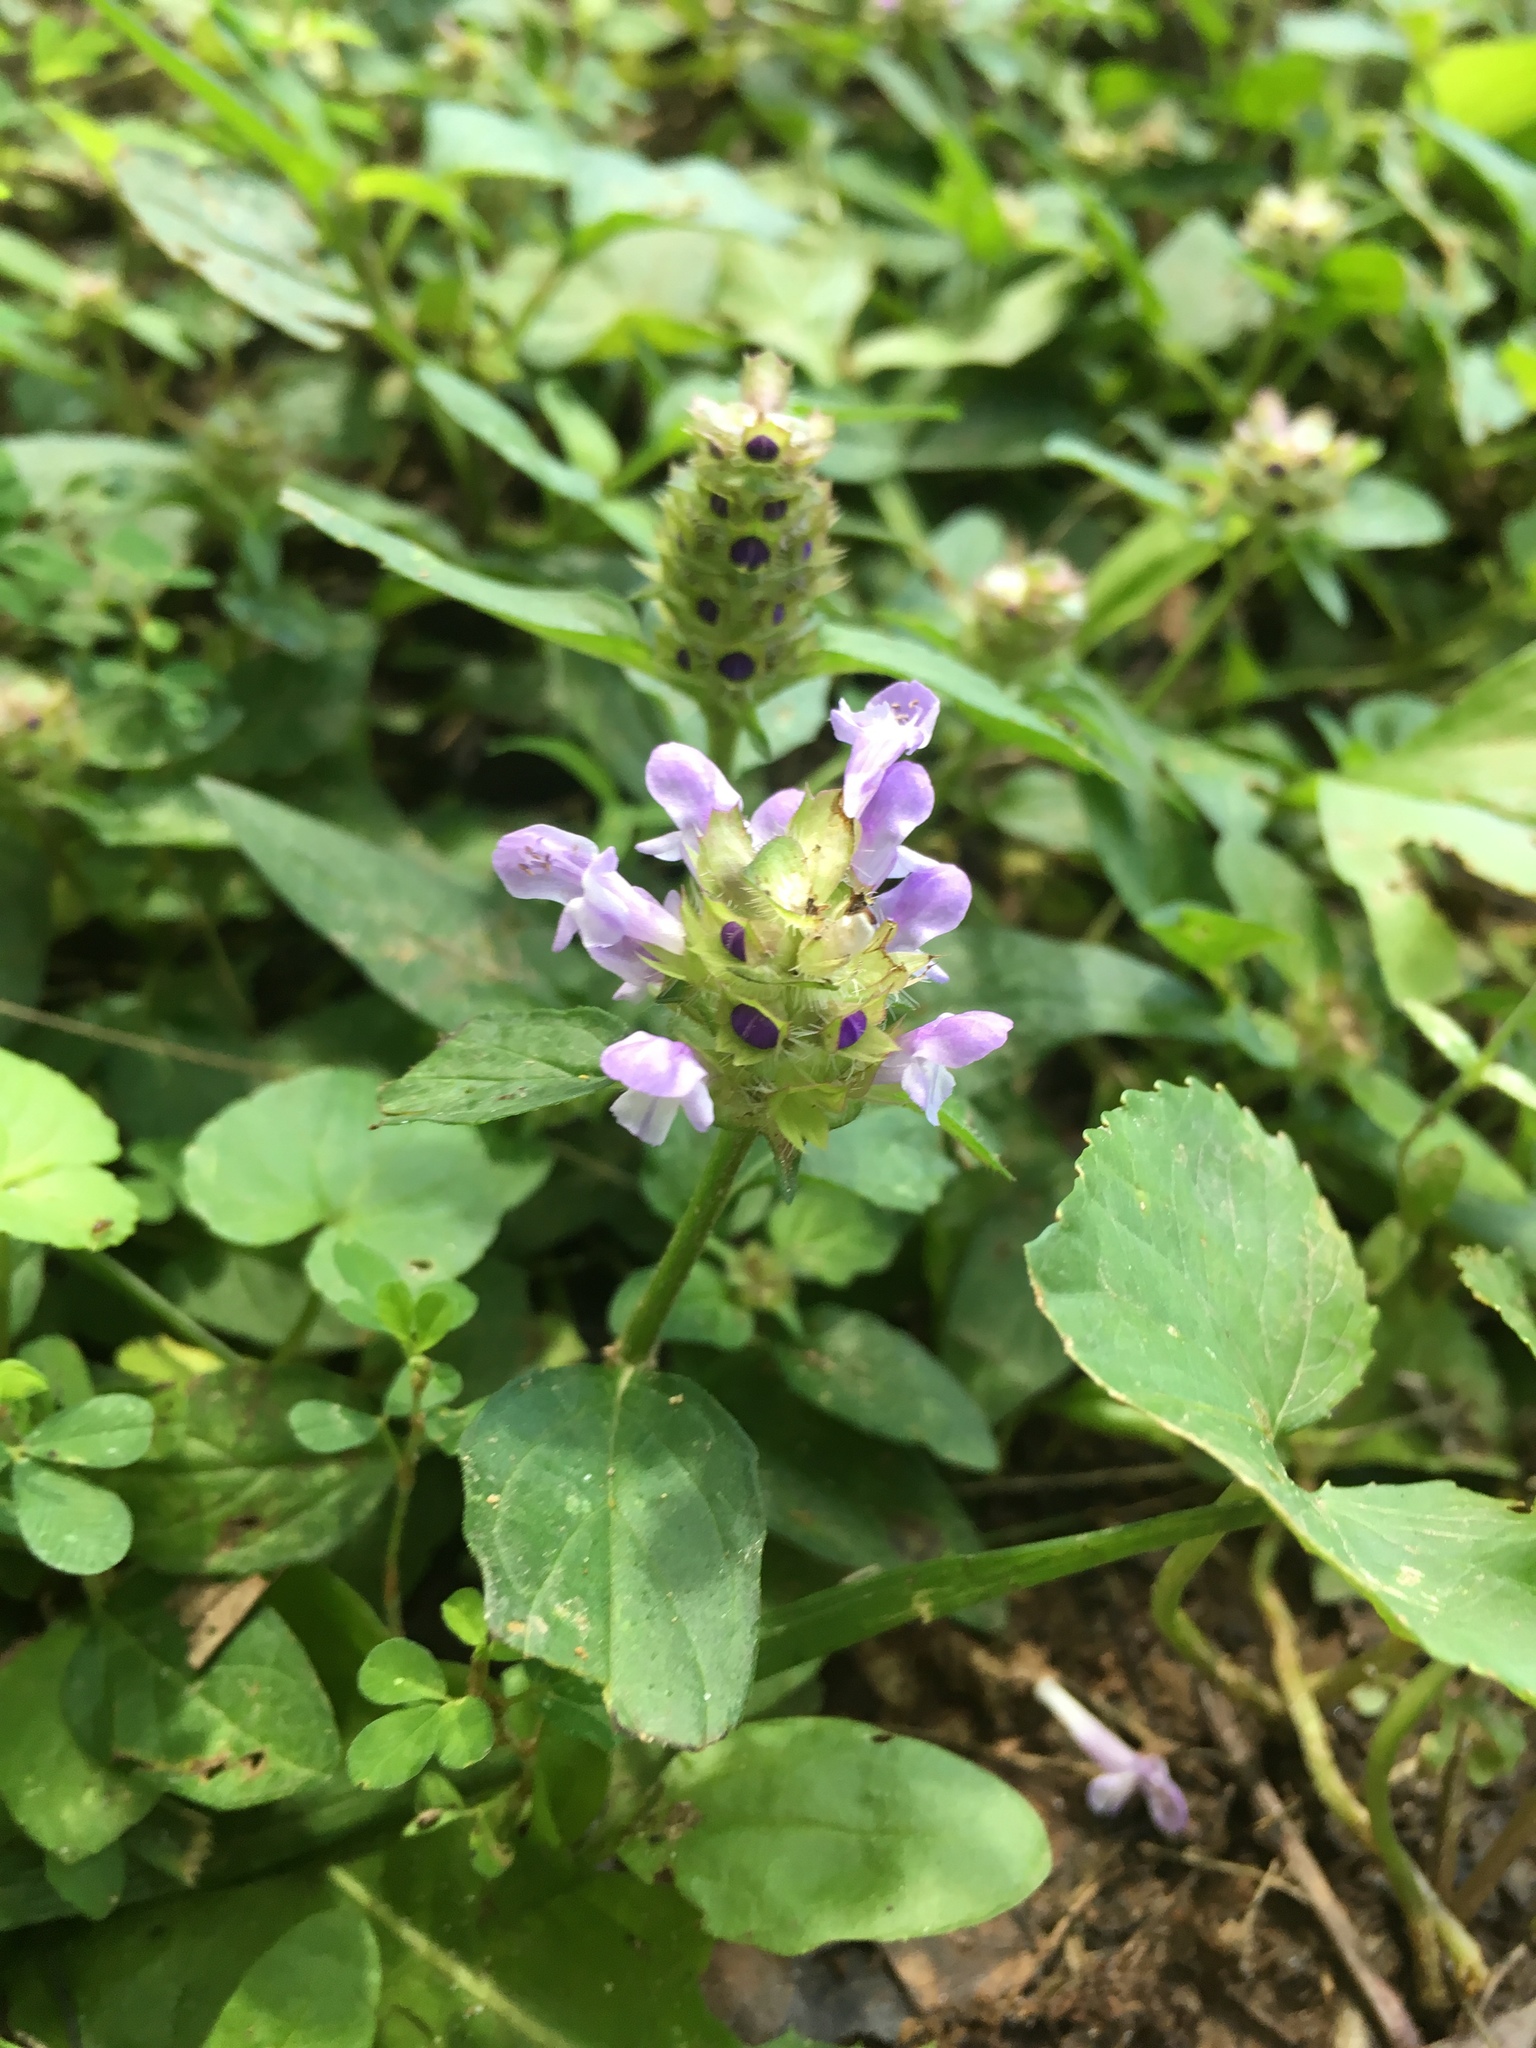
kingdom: Plantae
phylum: Tracheophyta
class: Magnoliopsida
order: Lamiales
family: Lamiaceae
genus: Prunella
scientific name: Prunella vulgaris
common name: Heal-all
